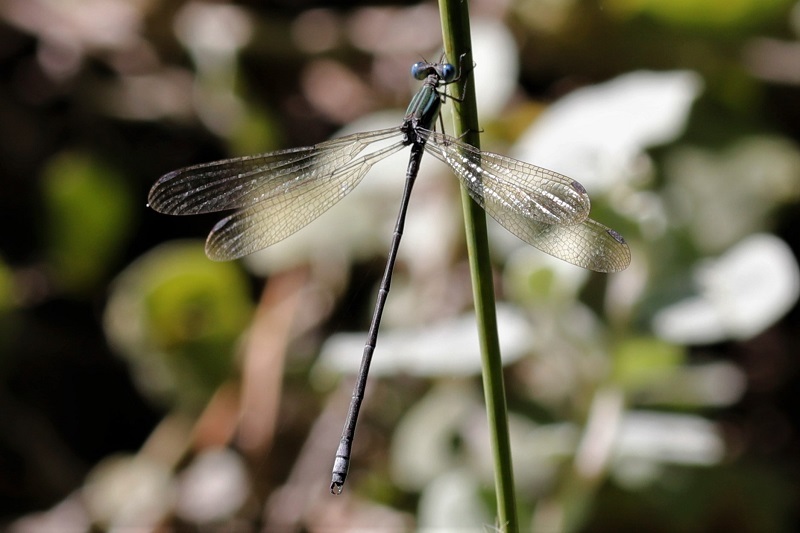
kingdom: Animalia
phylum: Arthropoda
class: Insecta
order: Odonata
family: Lestidae
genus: Lestes
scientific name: Lestes virgatus
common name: Smoky spreadwing
